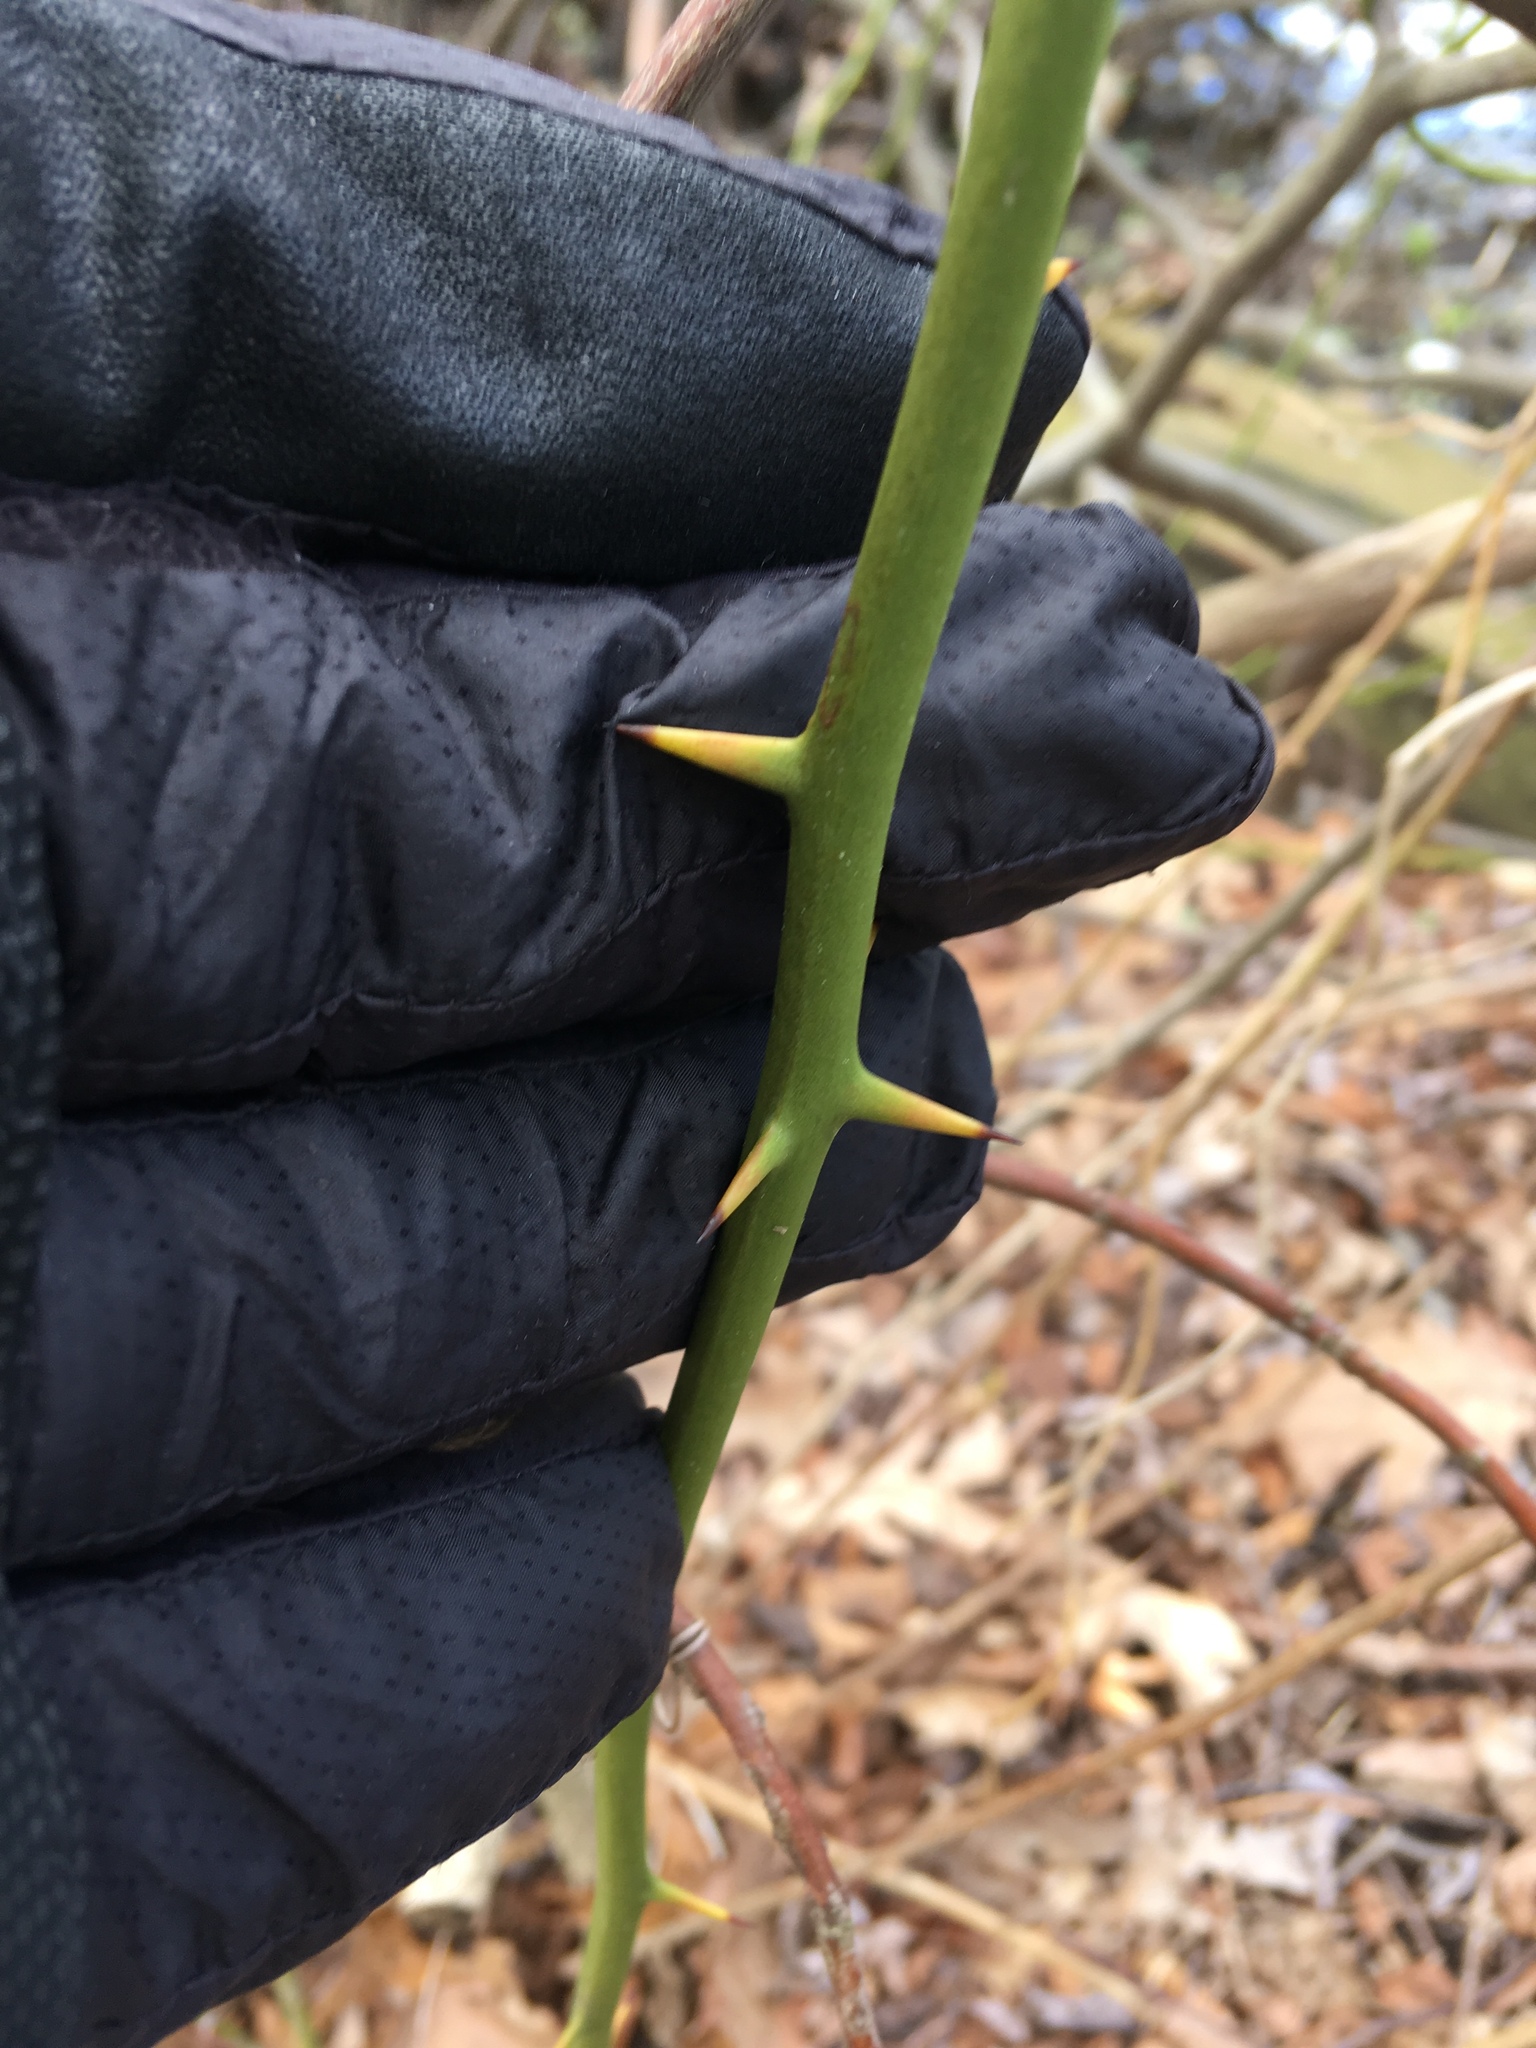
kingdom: Plantae
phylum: Tracheophyta
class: Liliopsida
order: Liliales
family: Smilacaceae
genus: Smilax
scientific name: Smilax rotundifolia
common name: Bullbriar
